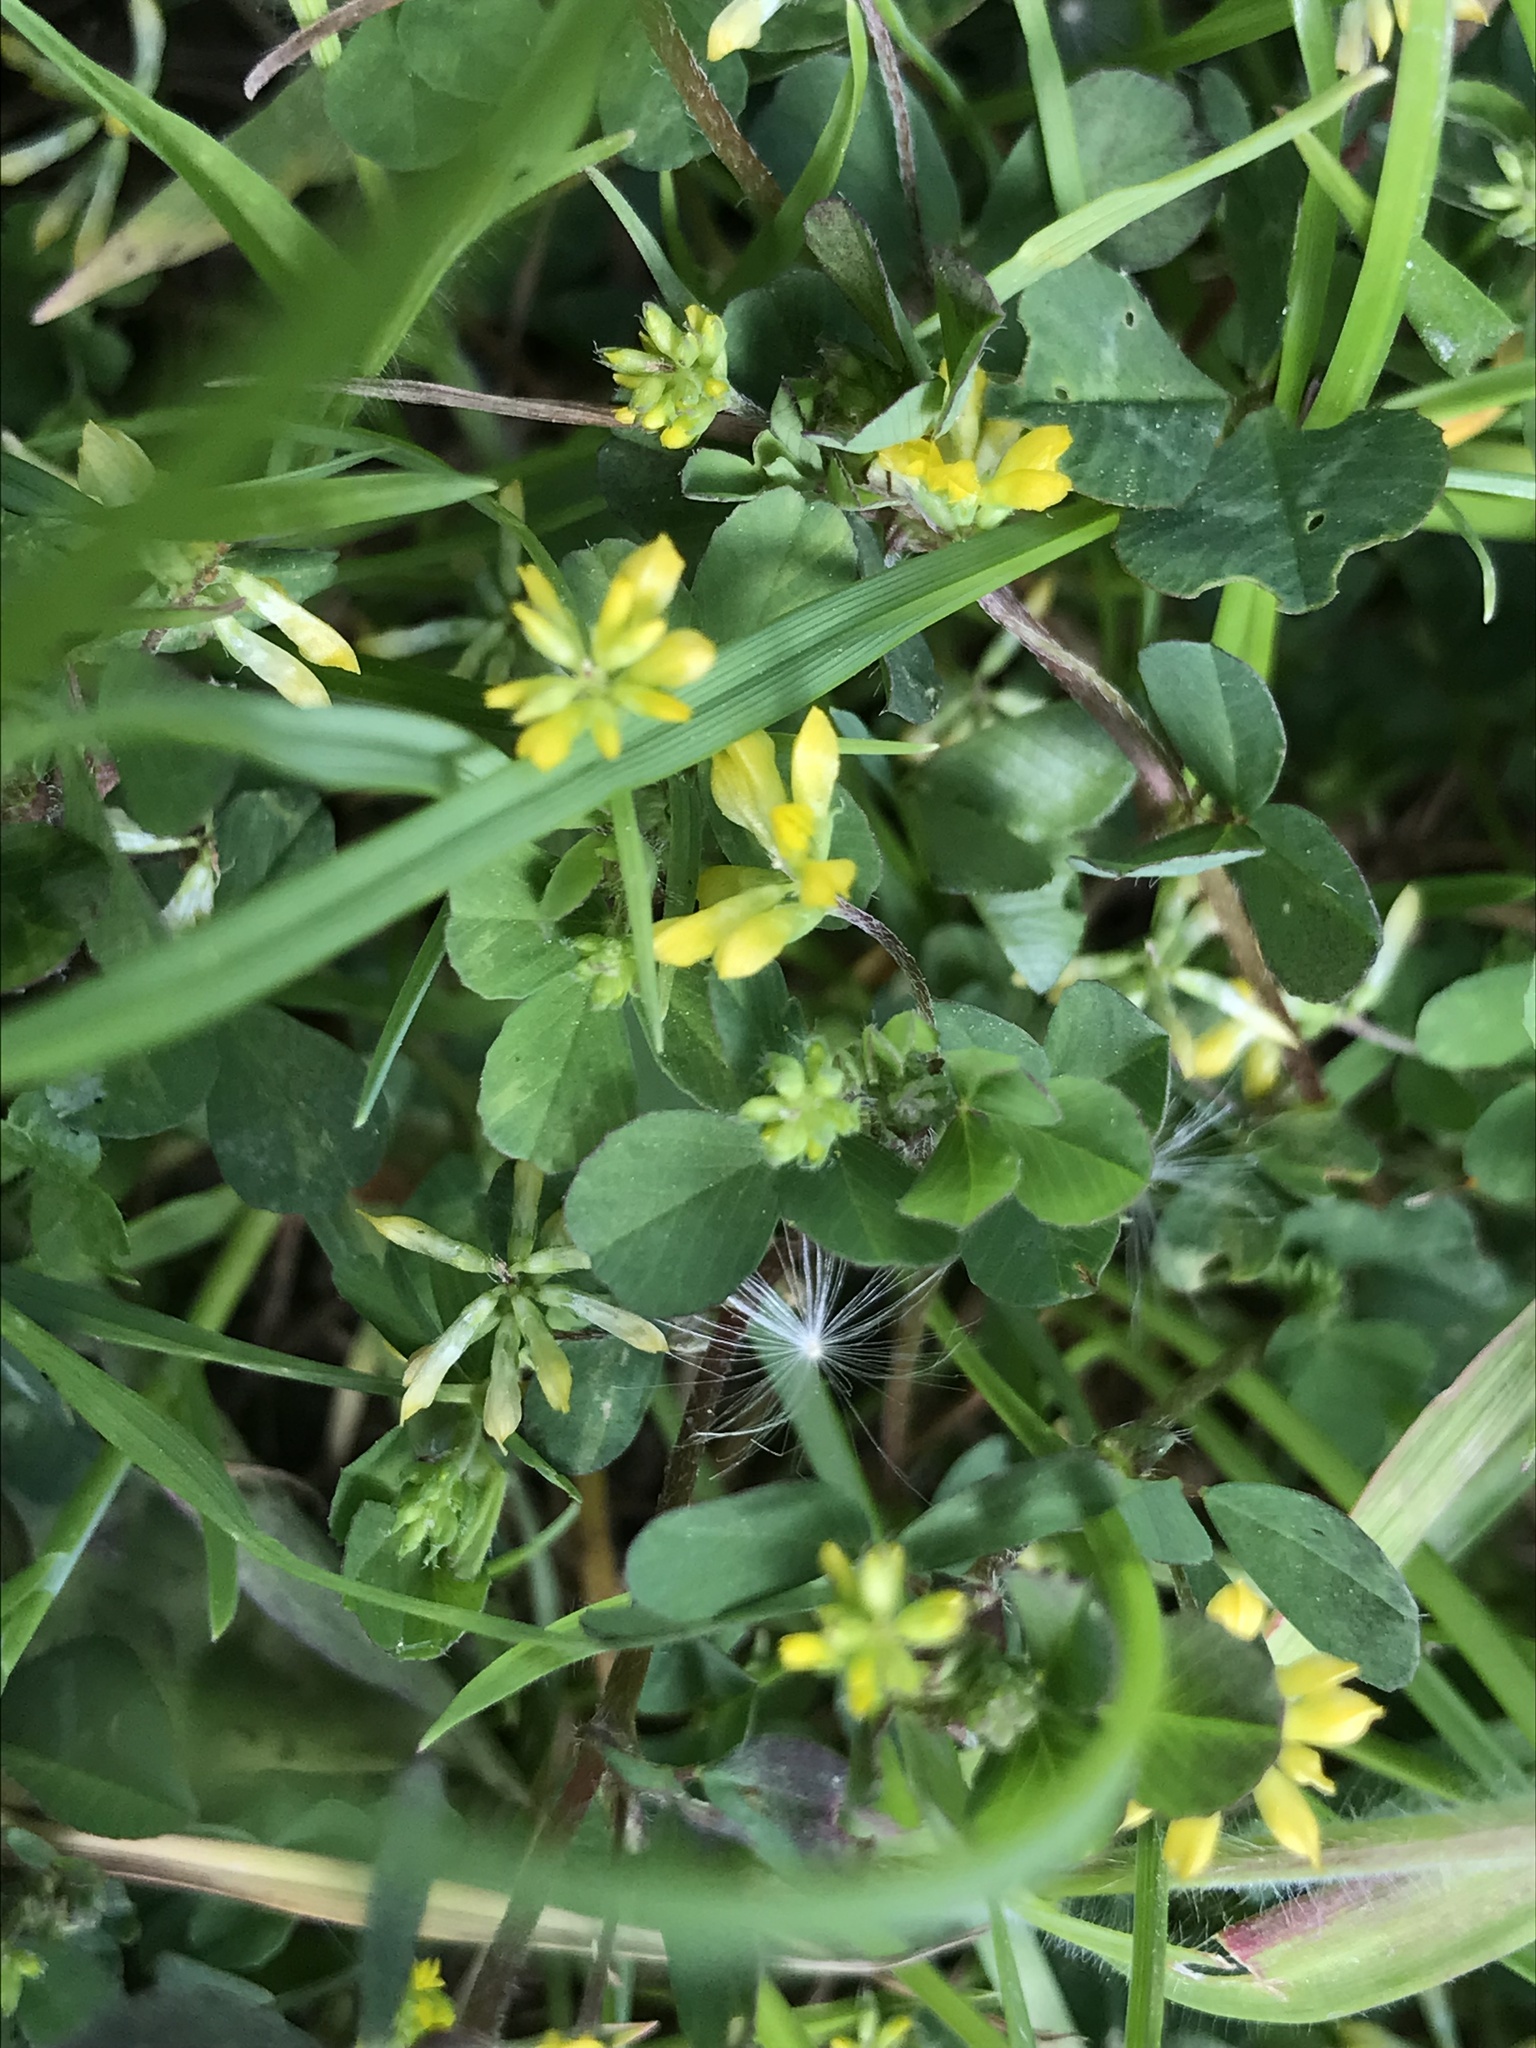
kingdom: Plantae
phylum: Tracheophyta
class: Magnoliopsida
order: Fabales
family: Fabaceae
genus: Trifolium
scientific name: Trifolium dubium
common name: Suckling clover
